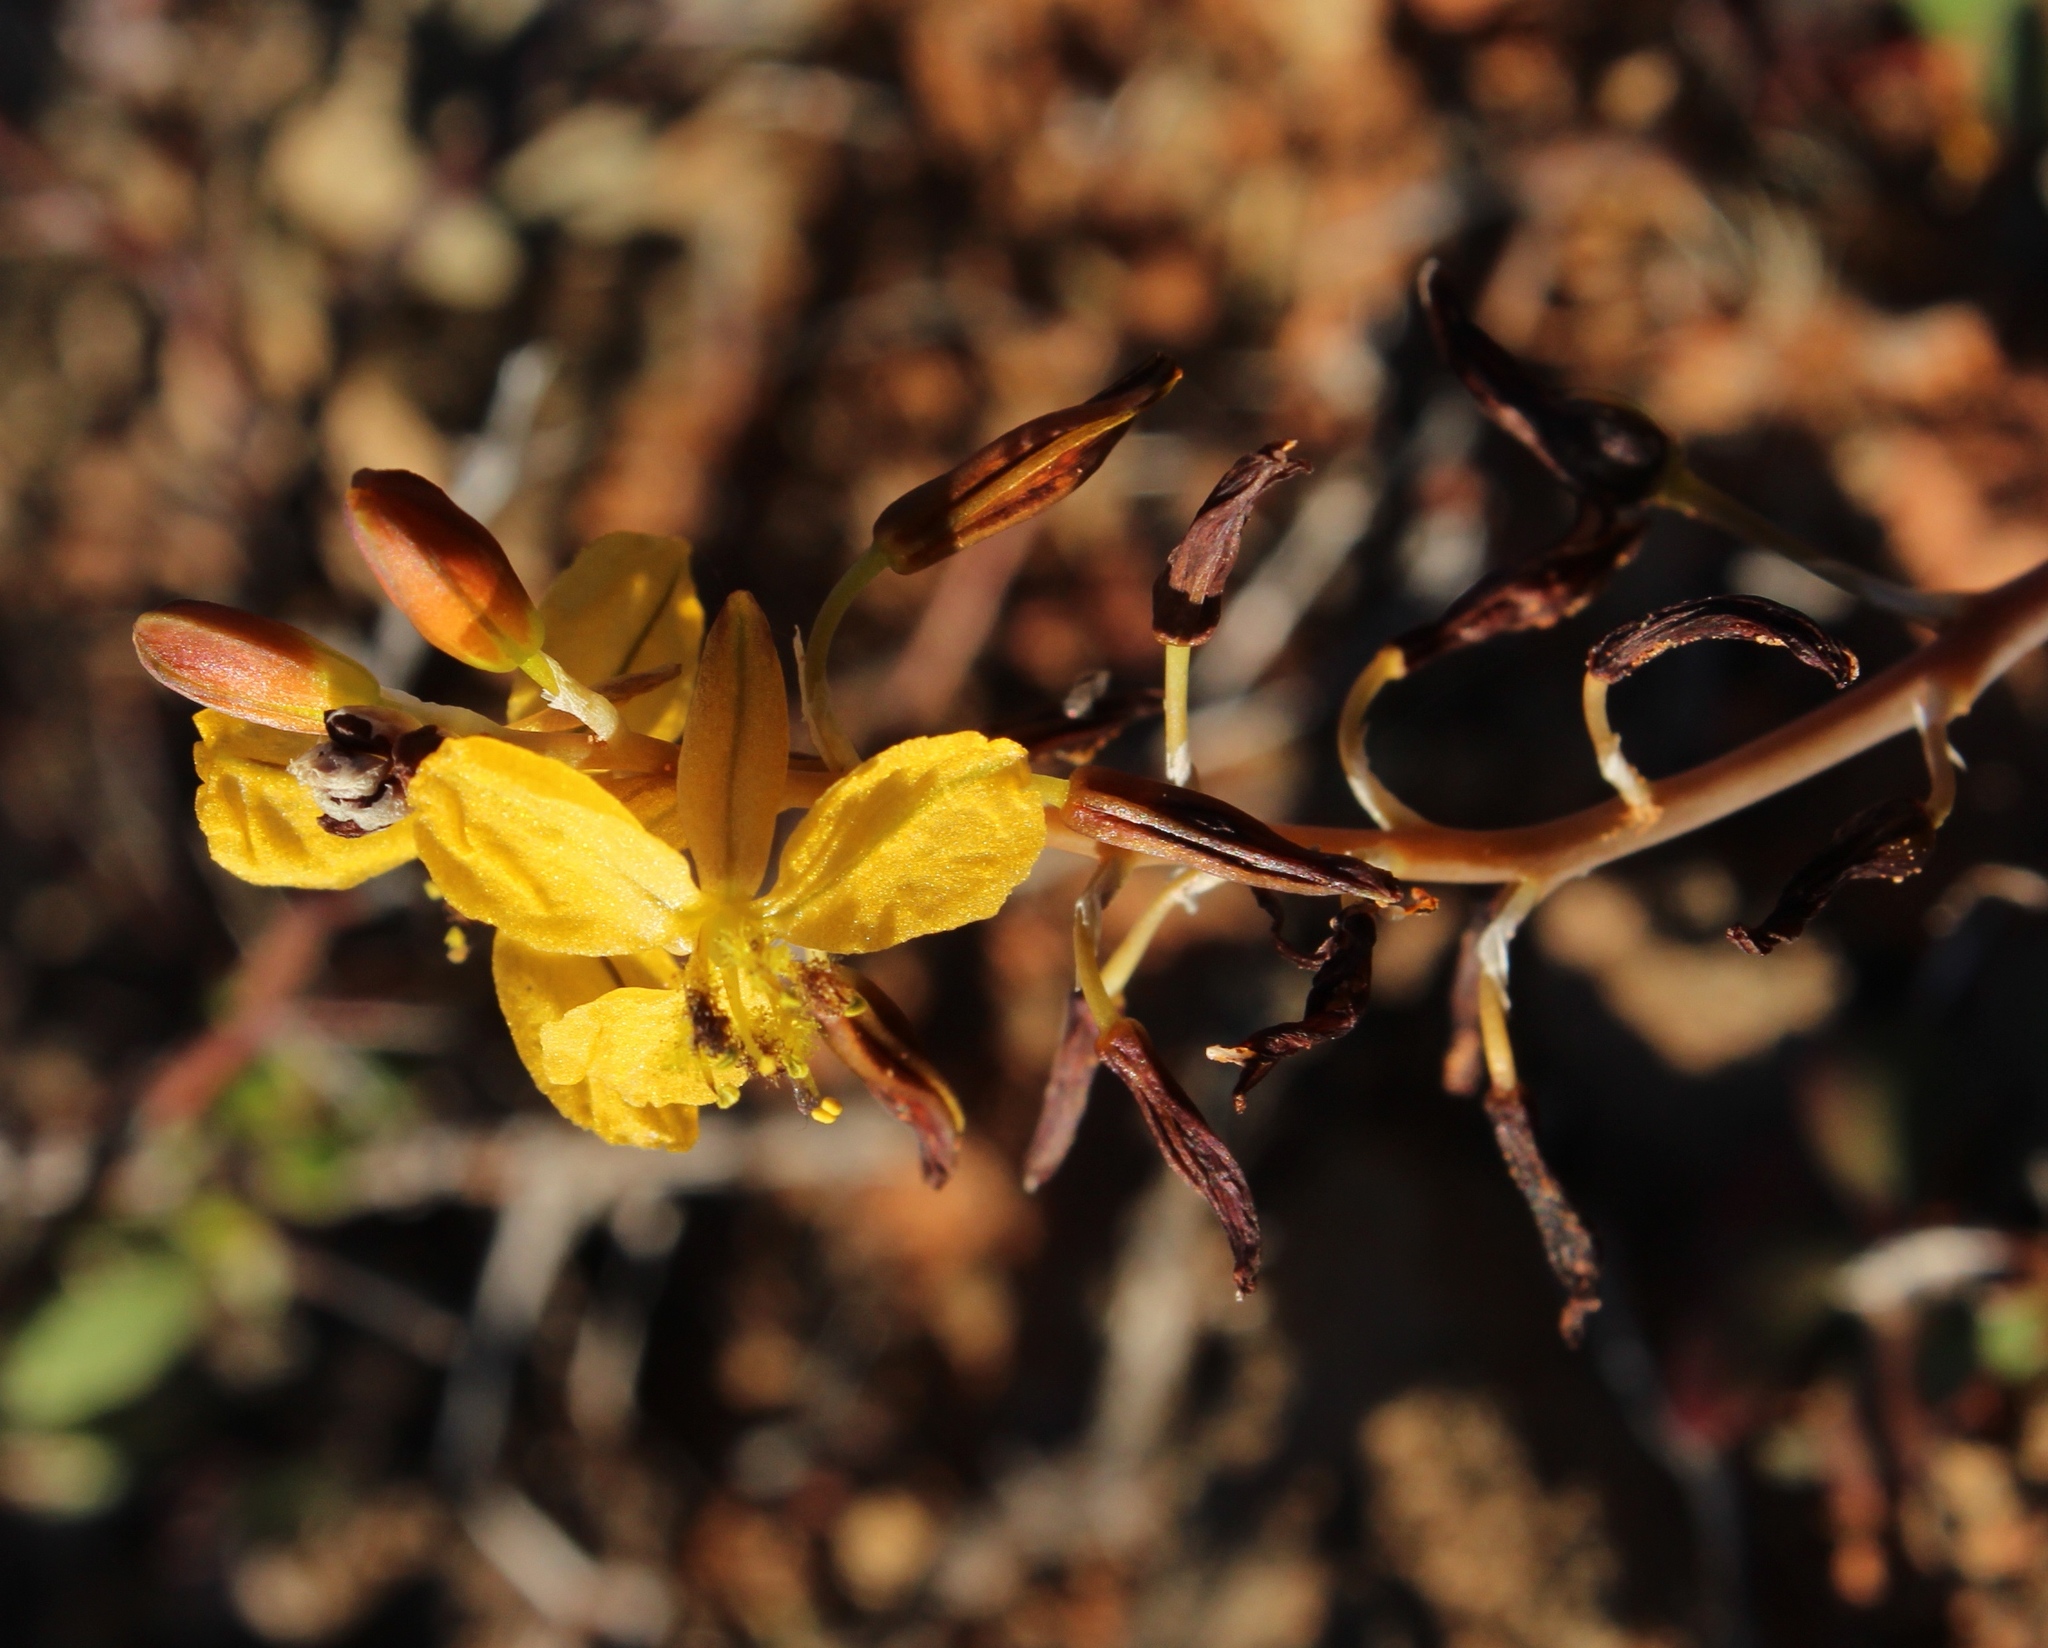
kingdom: Plantae
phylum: Tracheophyta
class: Liliopsida
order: Asparagales
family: Asphodelaceae
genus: Bulbine
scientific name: Bulbine succulenta
